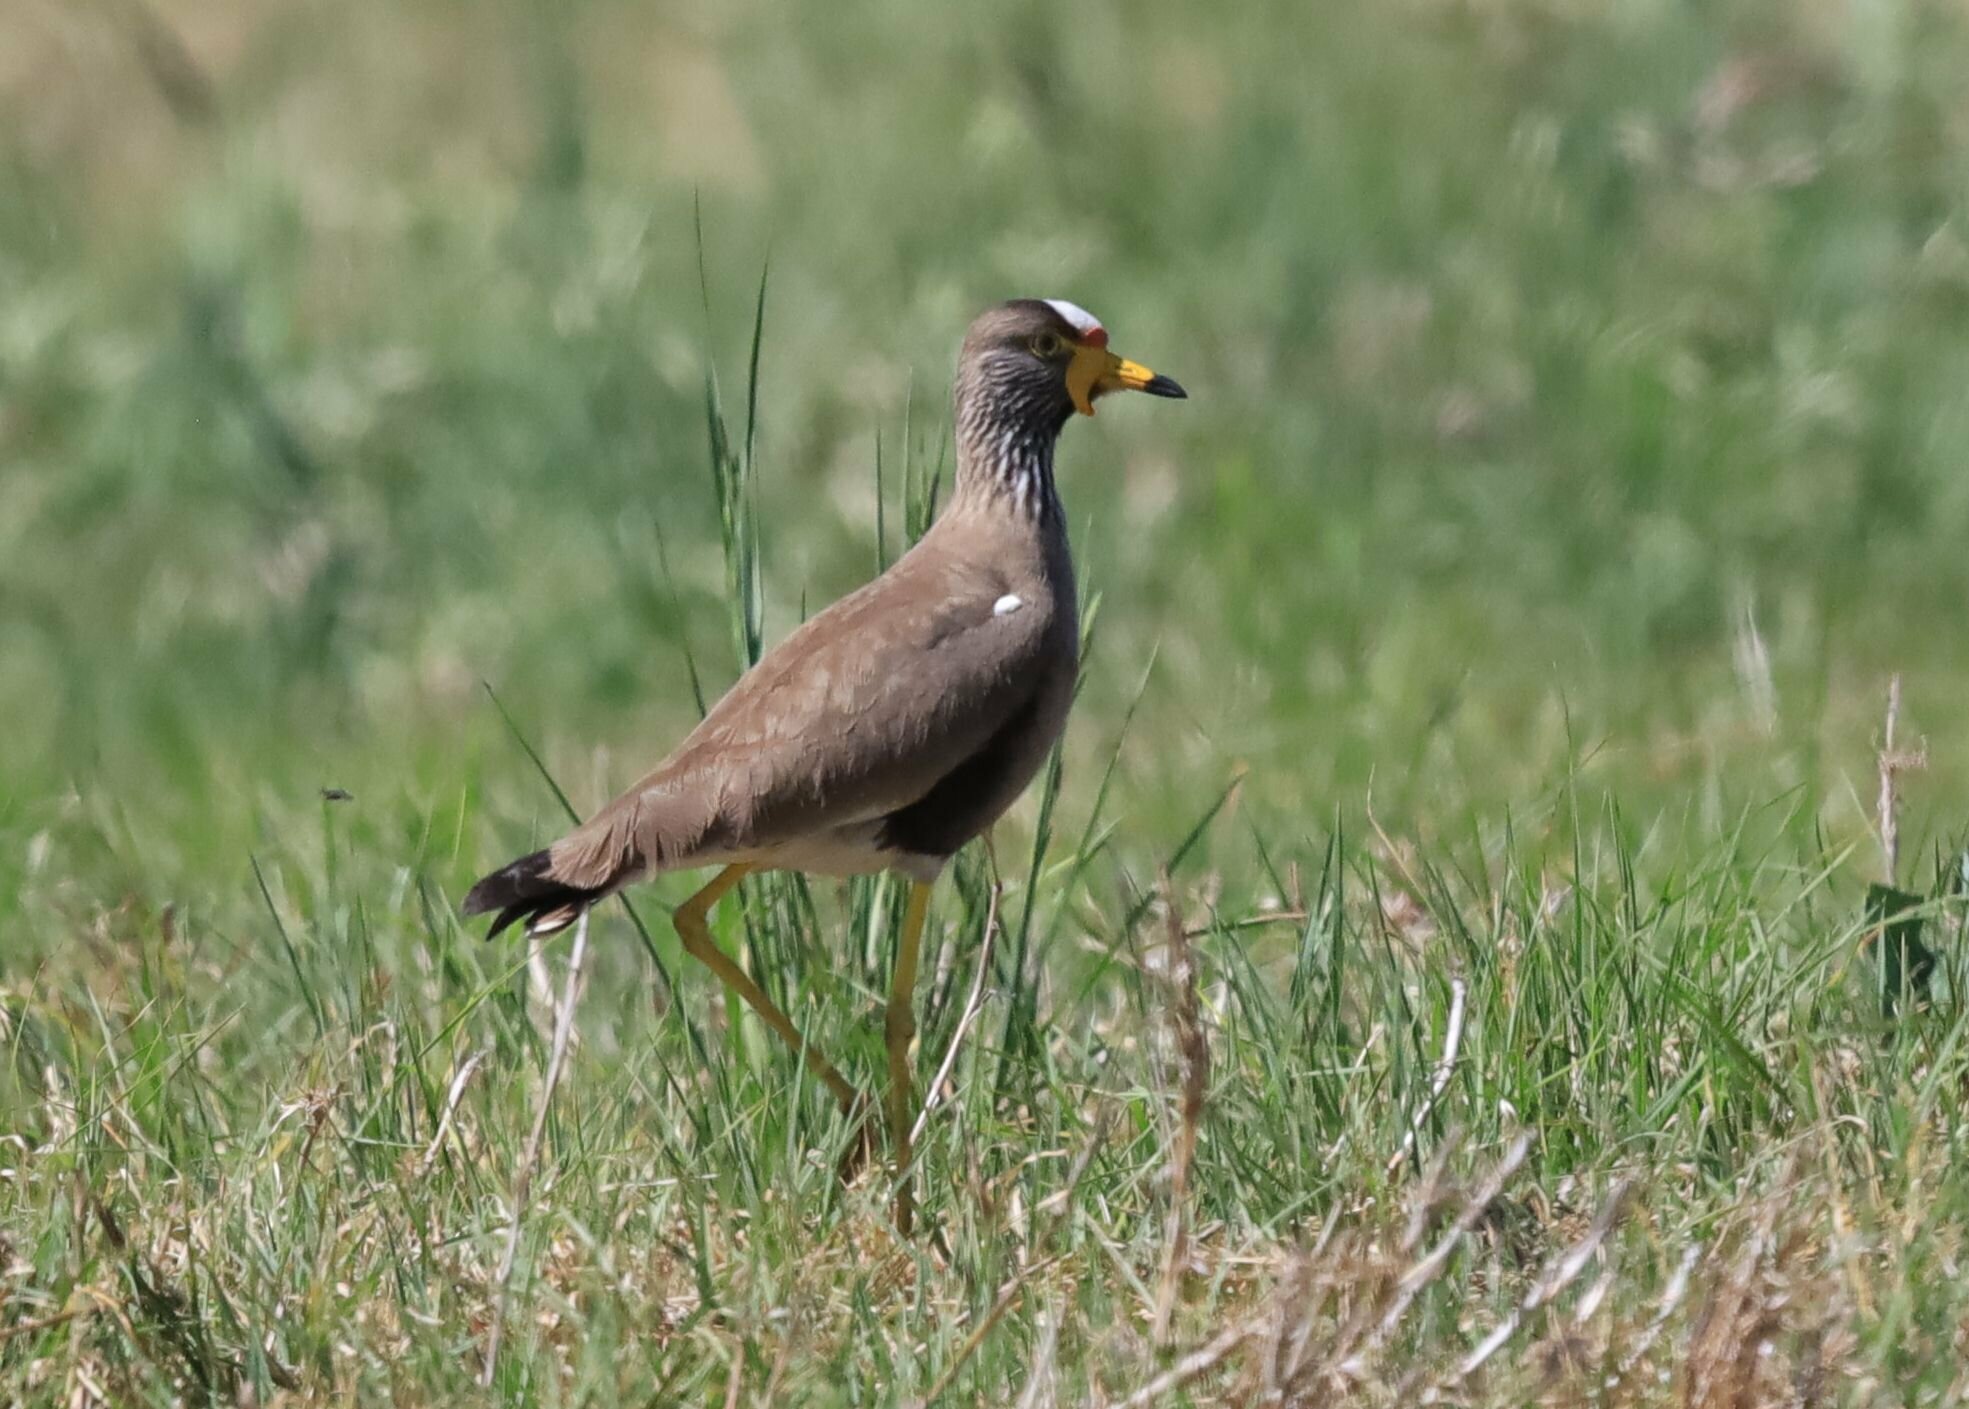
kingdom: Animalia
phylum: Chordata
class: Aves
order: Charadriiformes
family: Charadriidae
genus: Vanellus
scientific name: Vanellus senegallus
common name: African wattled lapwing
